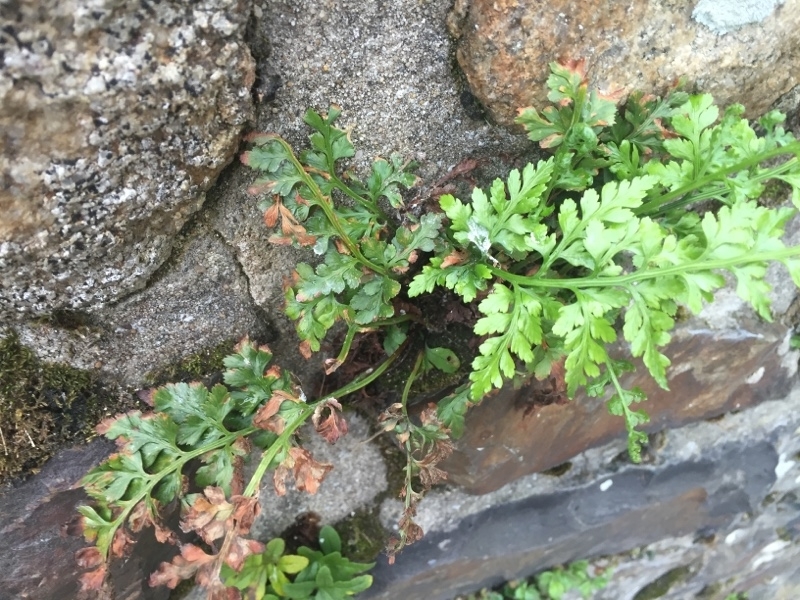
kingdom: Plantae
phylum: Tracheophyta
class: Polypodiopsida
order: Polypodiales
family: Aspleniaceae
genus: Asplenium
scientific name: Asplenium adiantum-nigrum
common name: Black spleenwort
